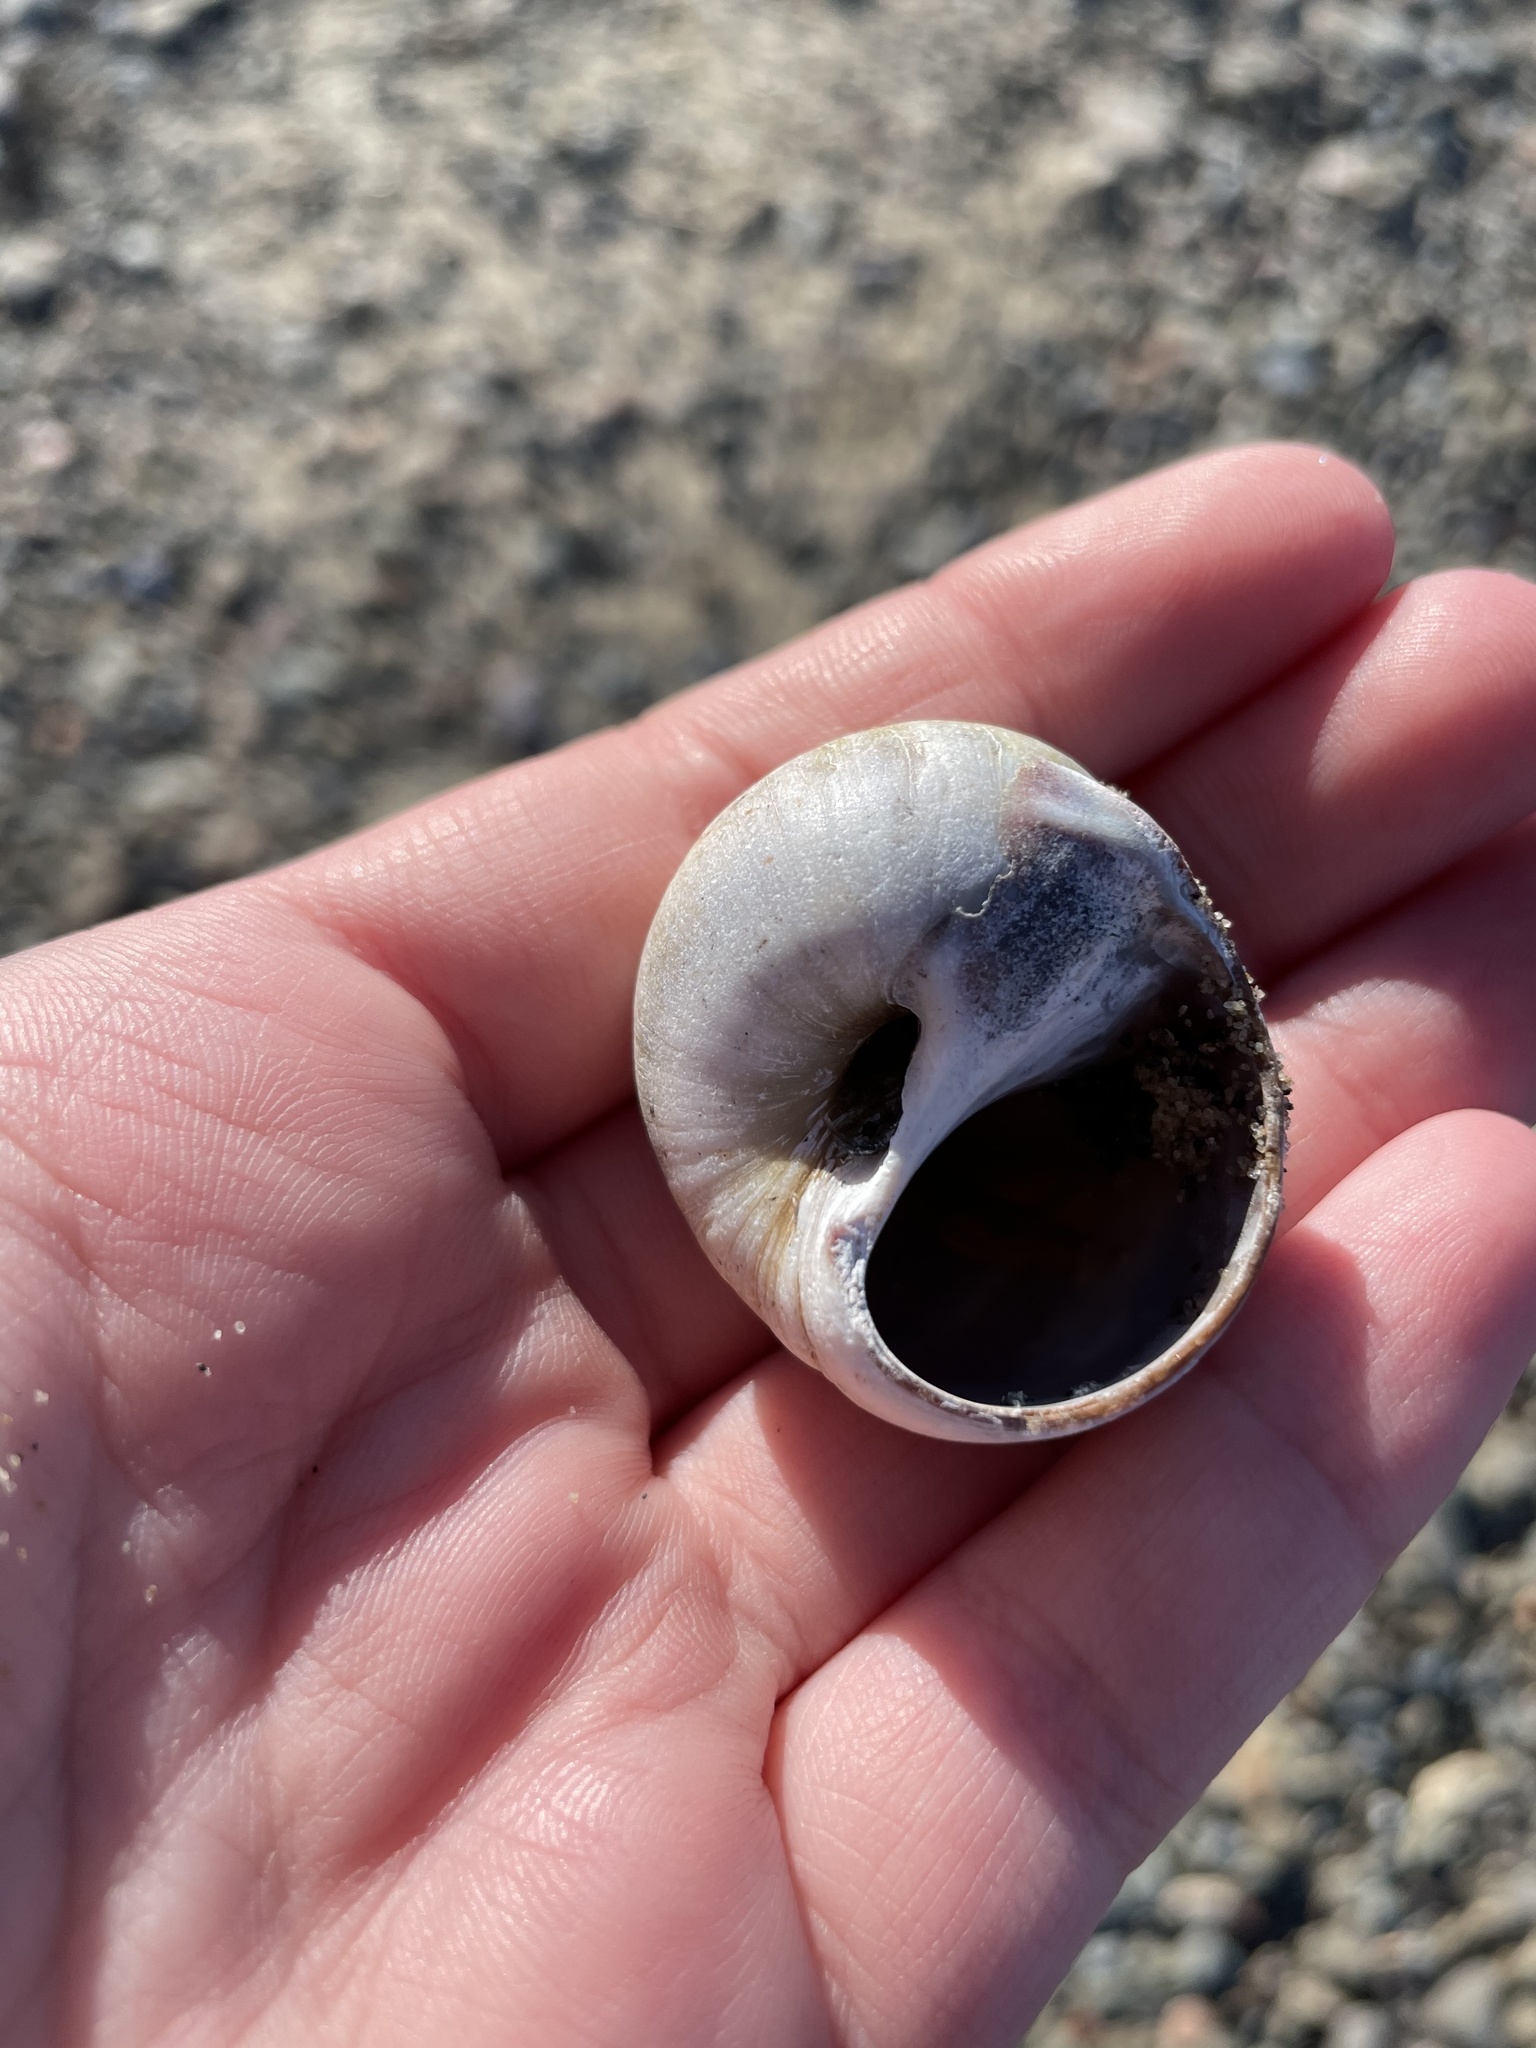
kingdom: Animalia
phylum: Mollusca
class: Gastropoda
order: Littorinimorpha
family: Naticidae
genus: Euspira
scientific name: Euspira heros
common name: Common northern moonsnail
